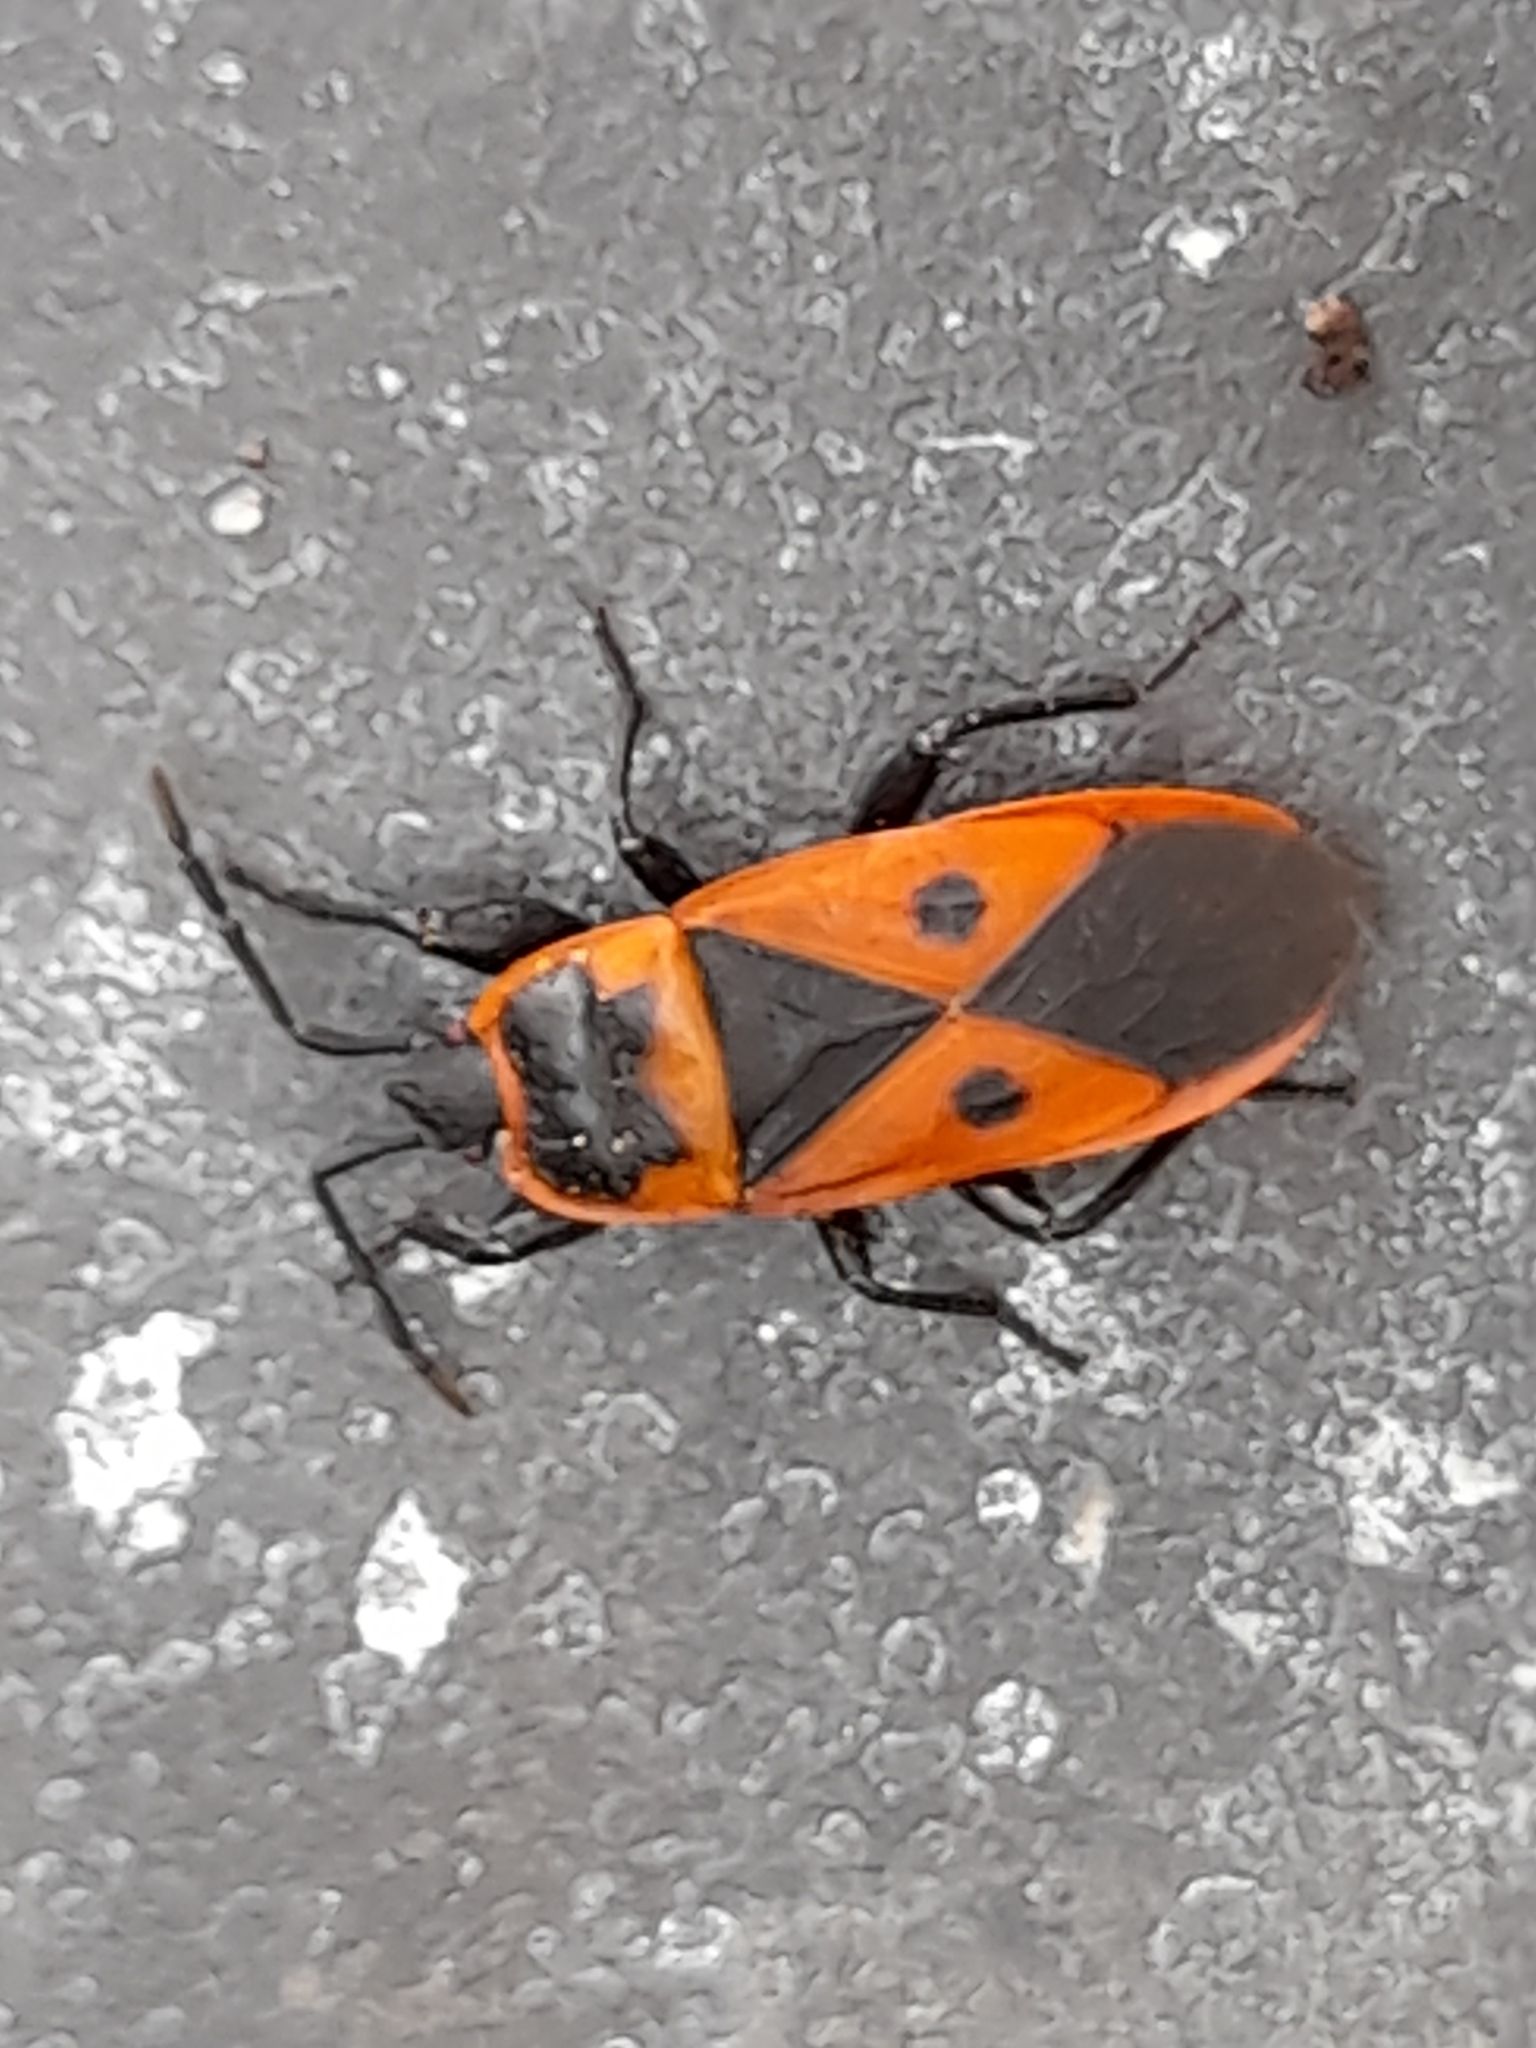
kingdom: Animalia
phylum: Arthropoda
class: Insecta
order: Hemiptera
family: Pyrrhocoridae
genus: Scantius
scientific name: Scantius aegyptius
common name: Red bug
